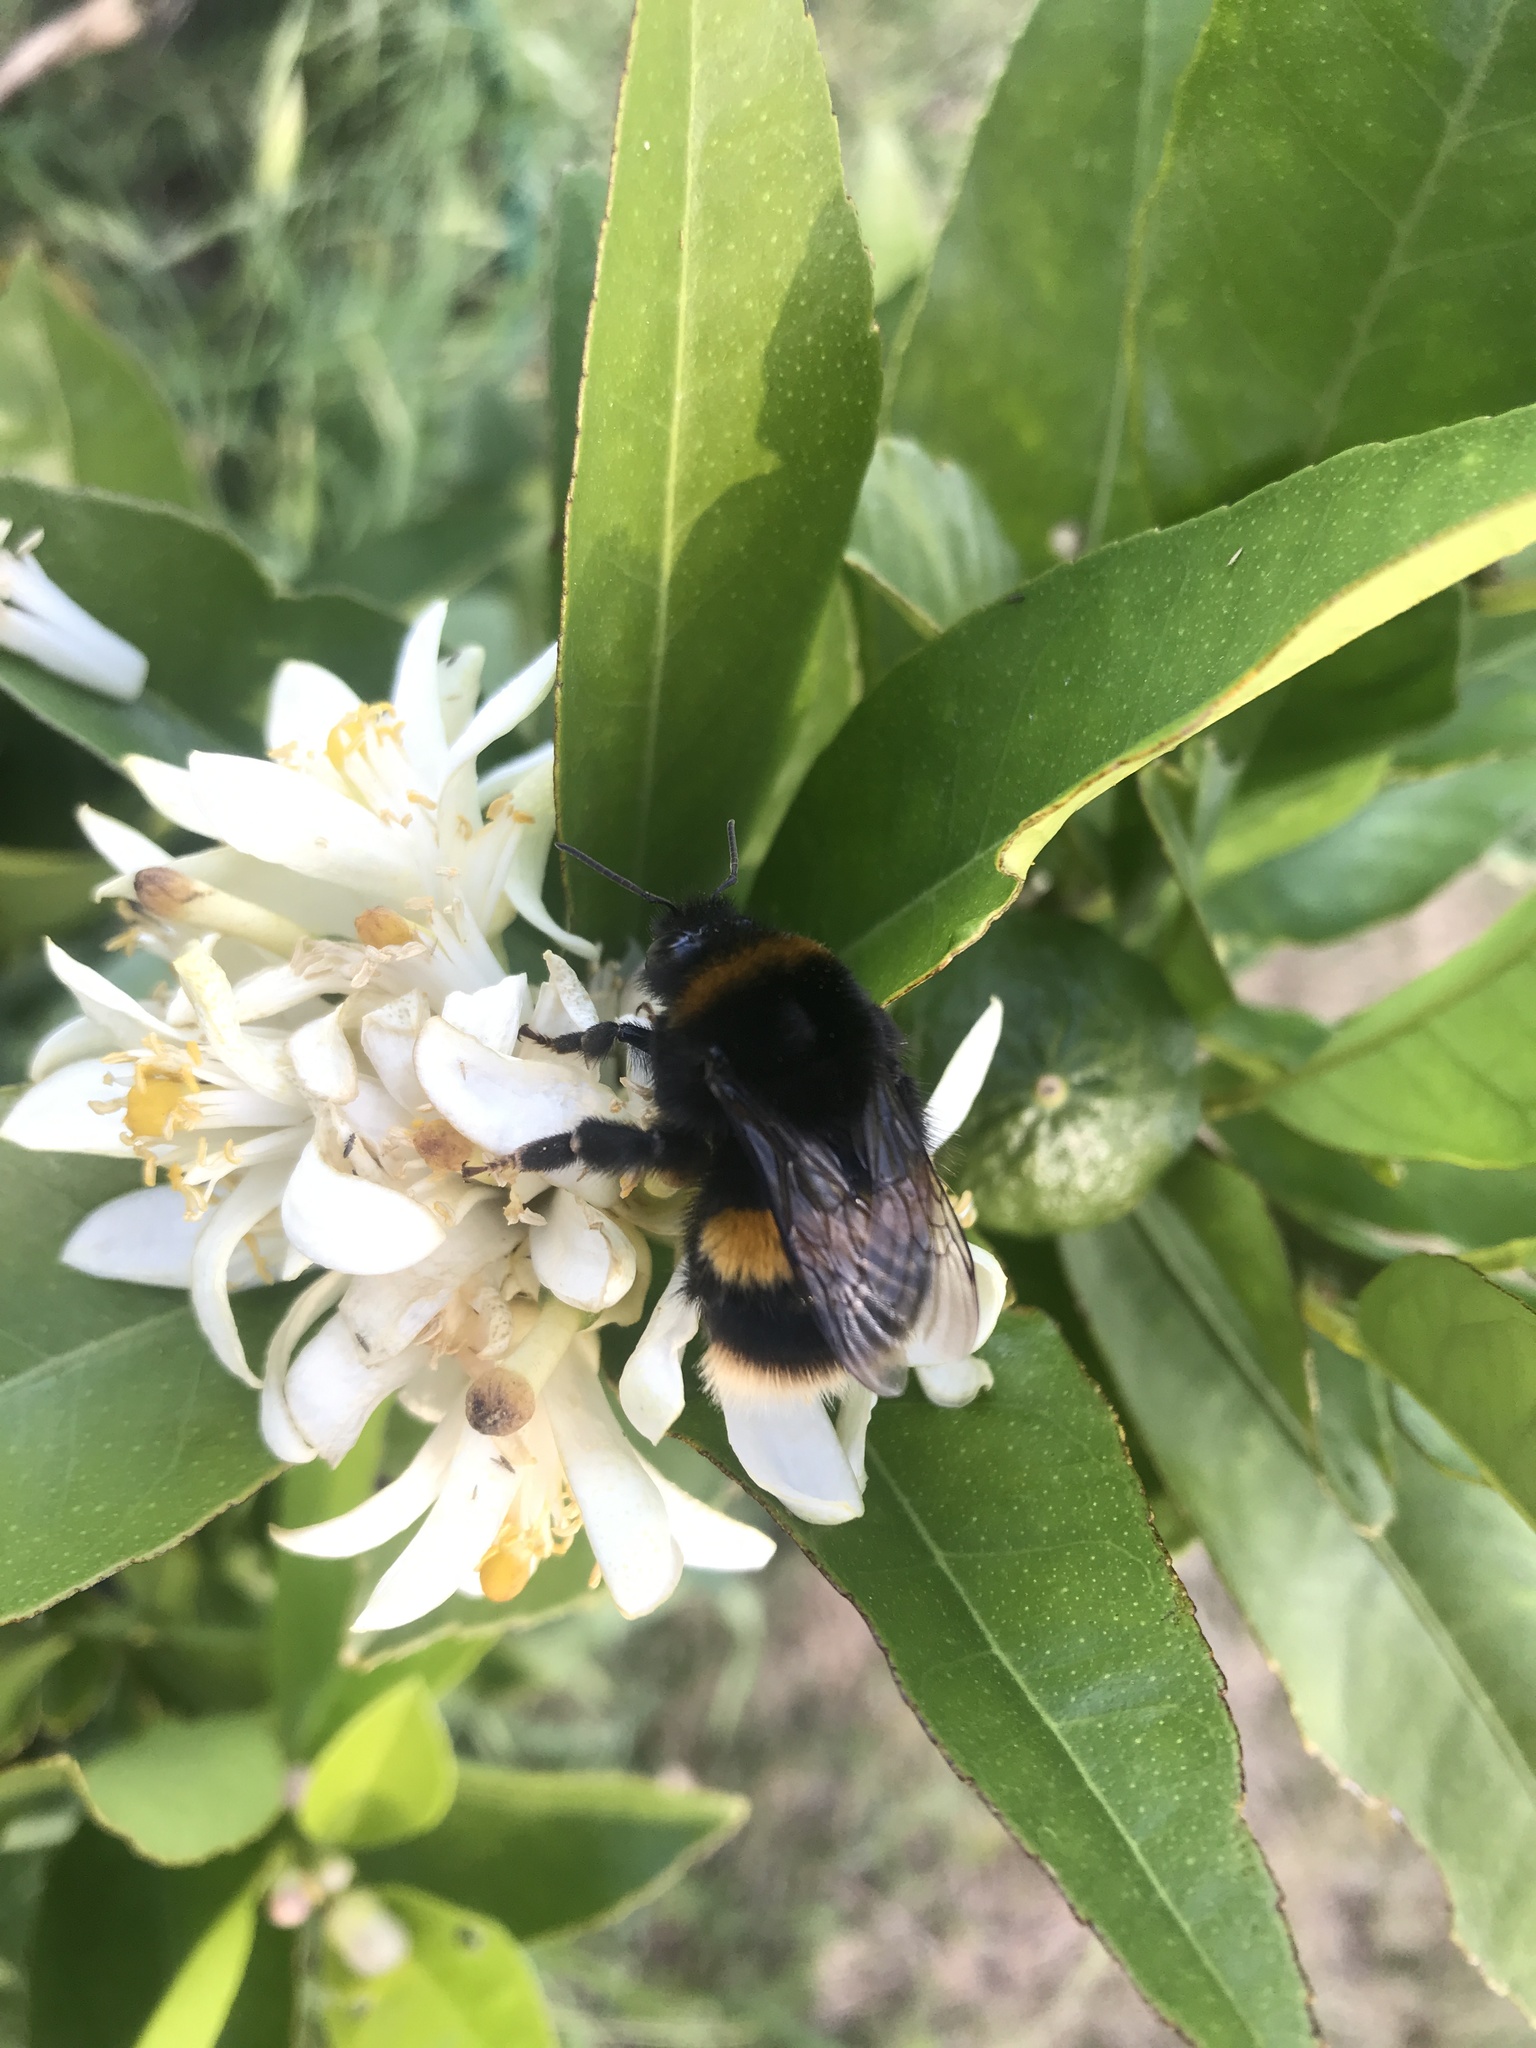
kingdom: Animalia
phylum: Arthropoda
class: Insecta
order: Hymenoptera
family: Apidae
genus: Bombus
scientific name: Bombus terrestris
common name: Buff-tailed bumblebee
